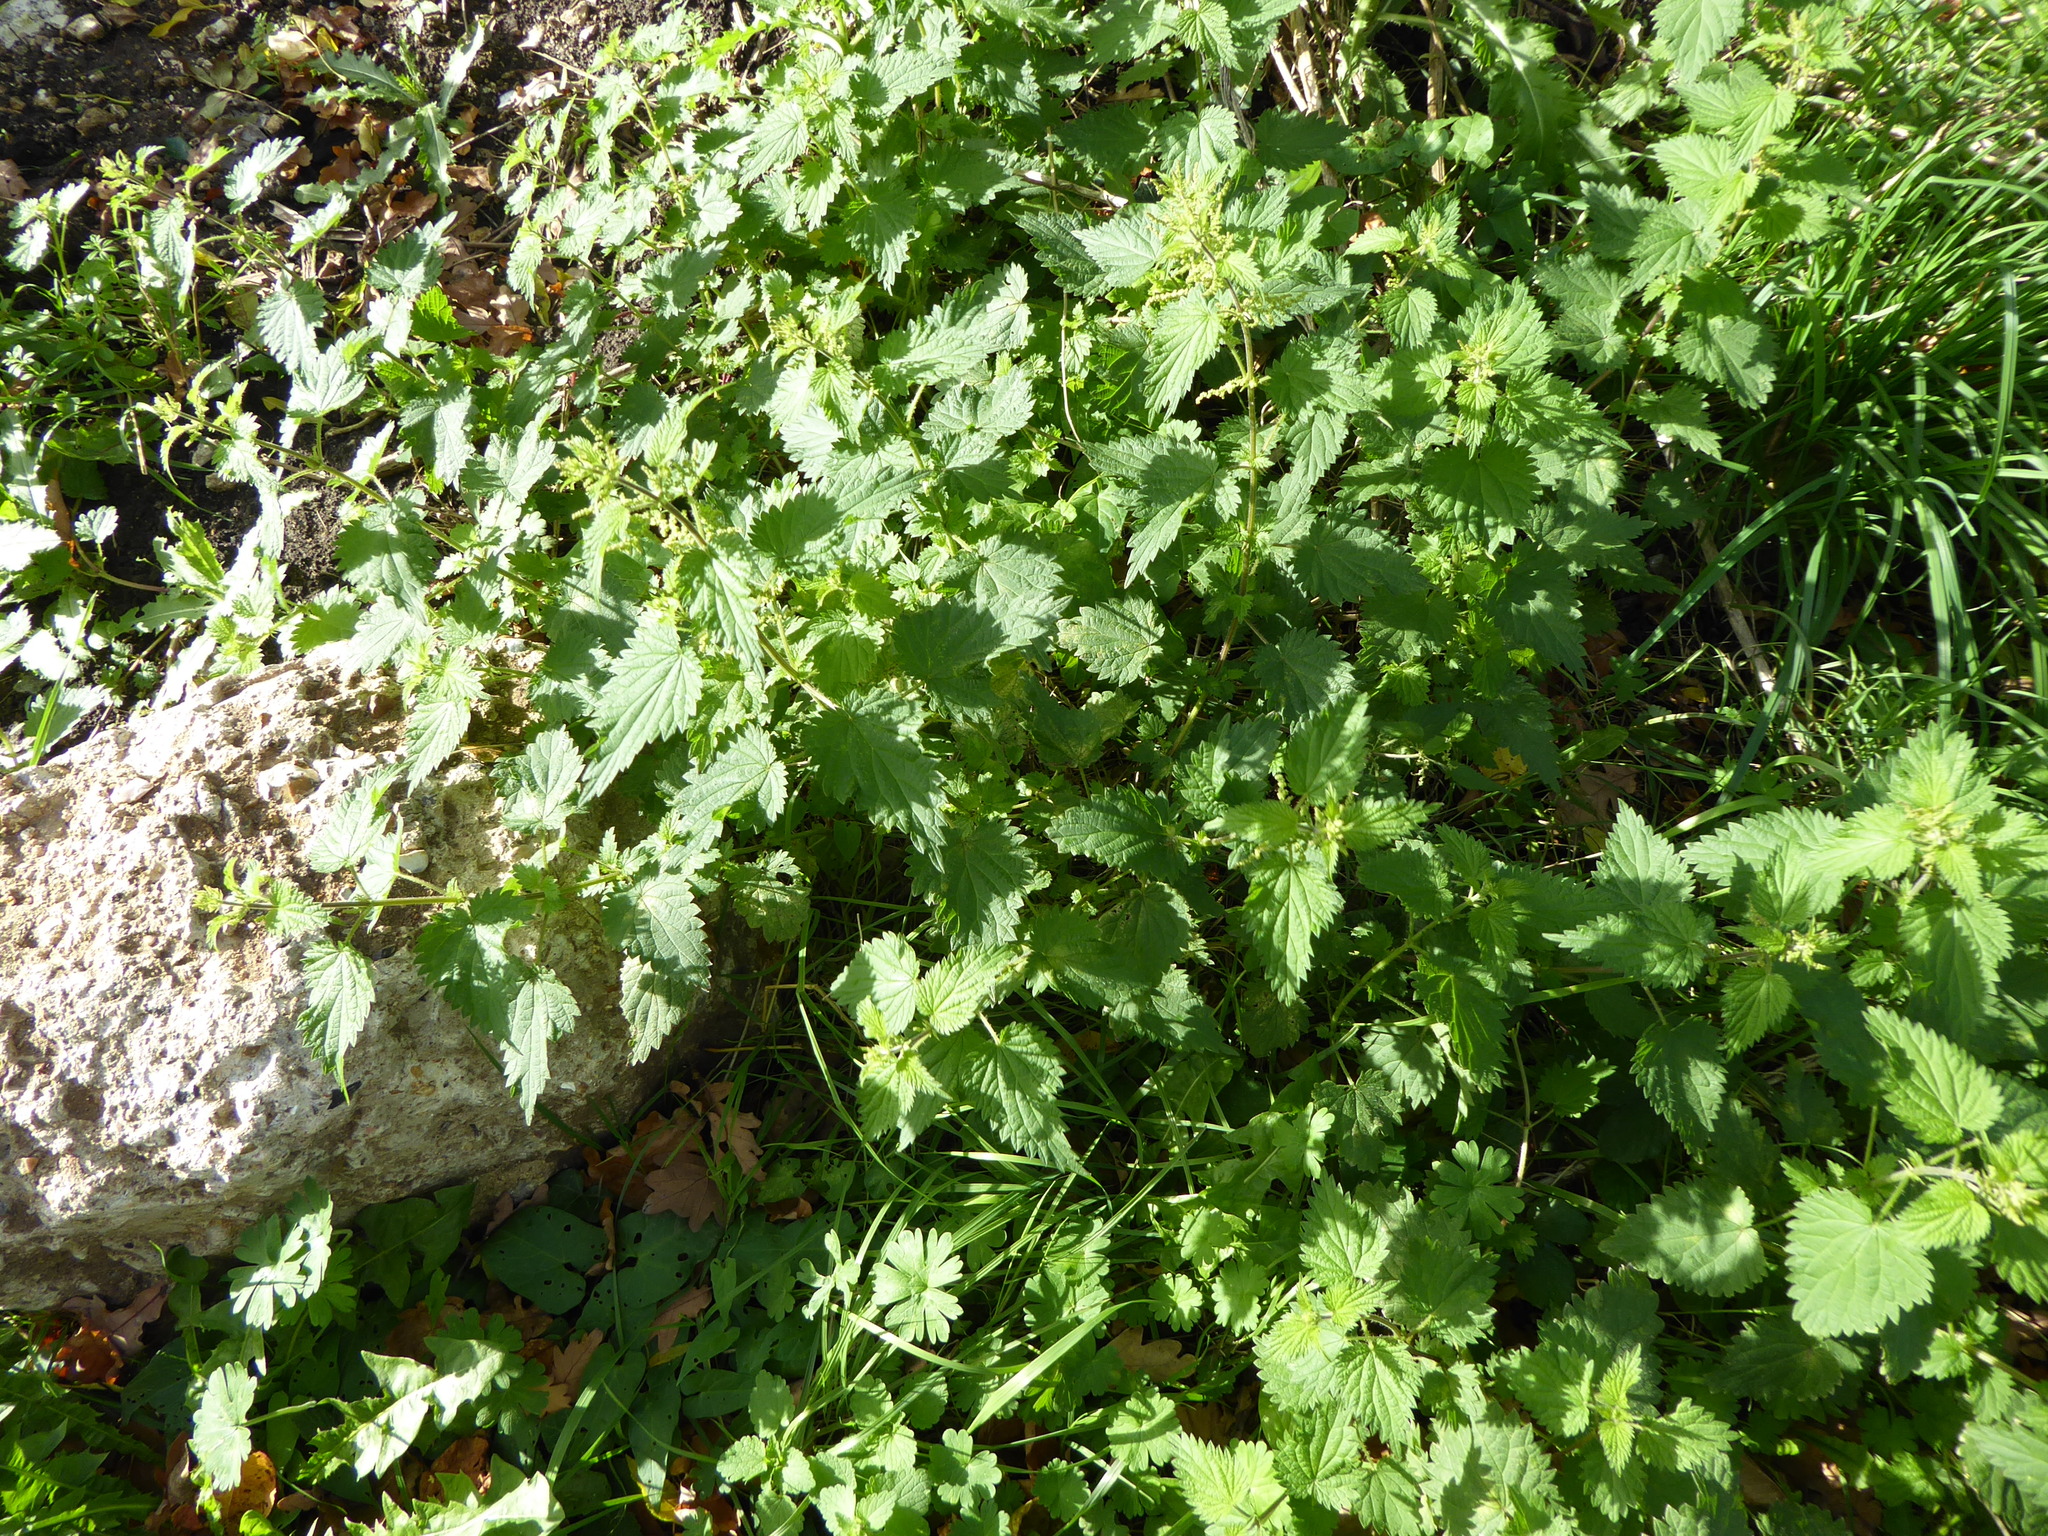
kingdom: Plantae
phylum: Tracheophyta
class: Magnoliopsida
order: Rosales
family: Urticaceae
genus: Urtica
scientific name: Urtica dioica
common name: Common nettle
